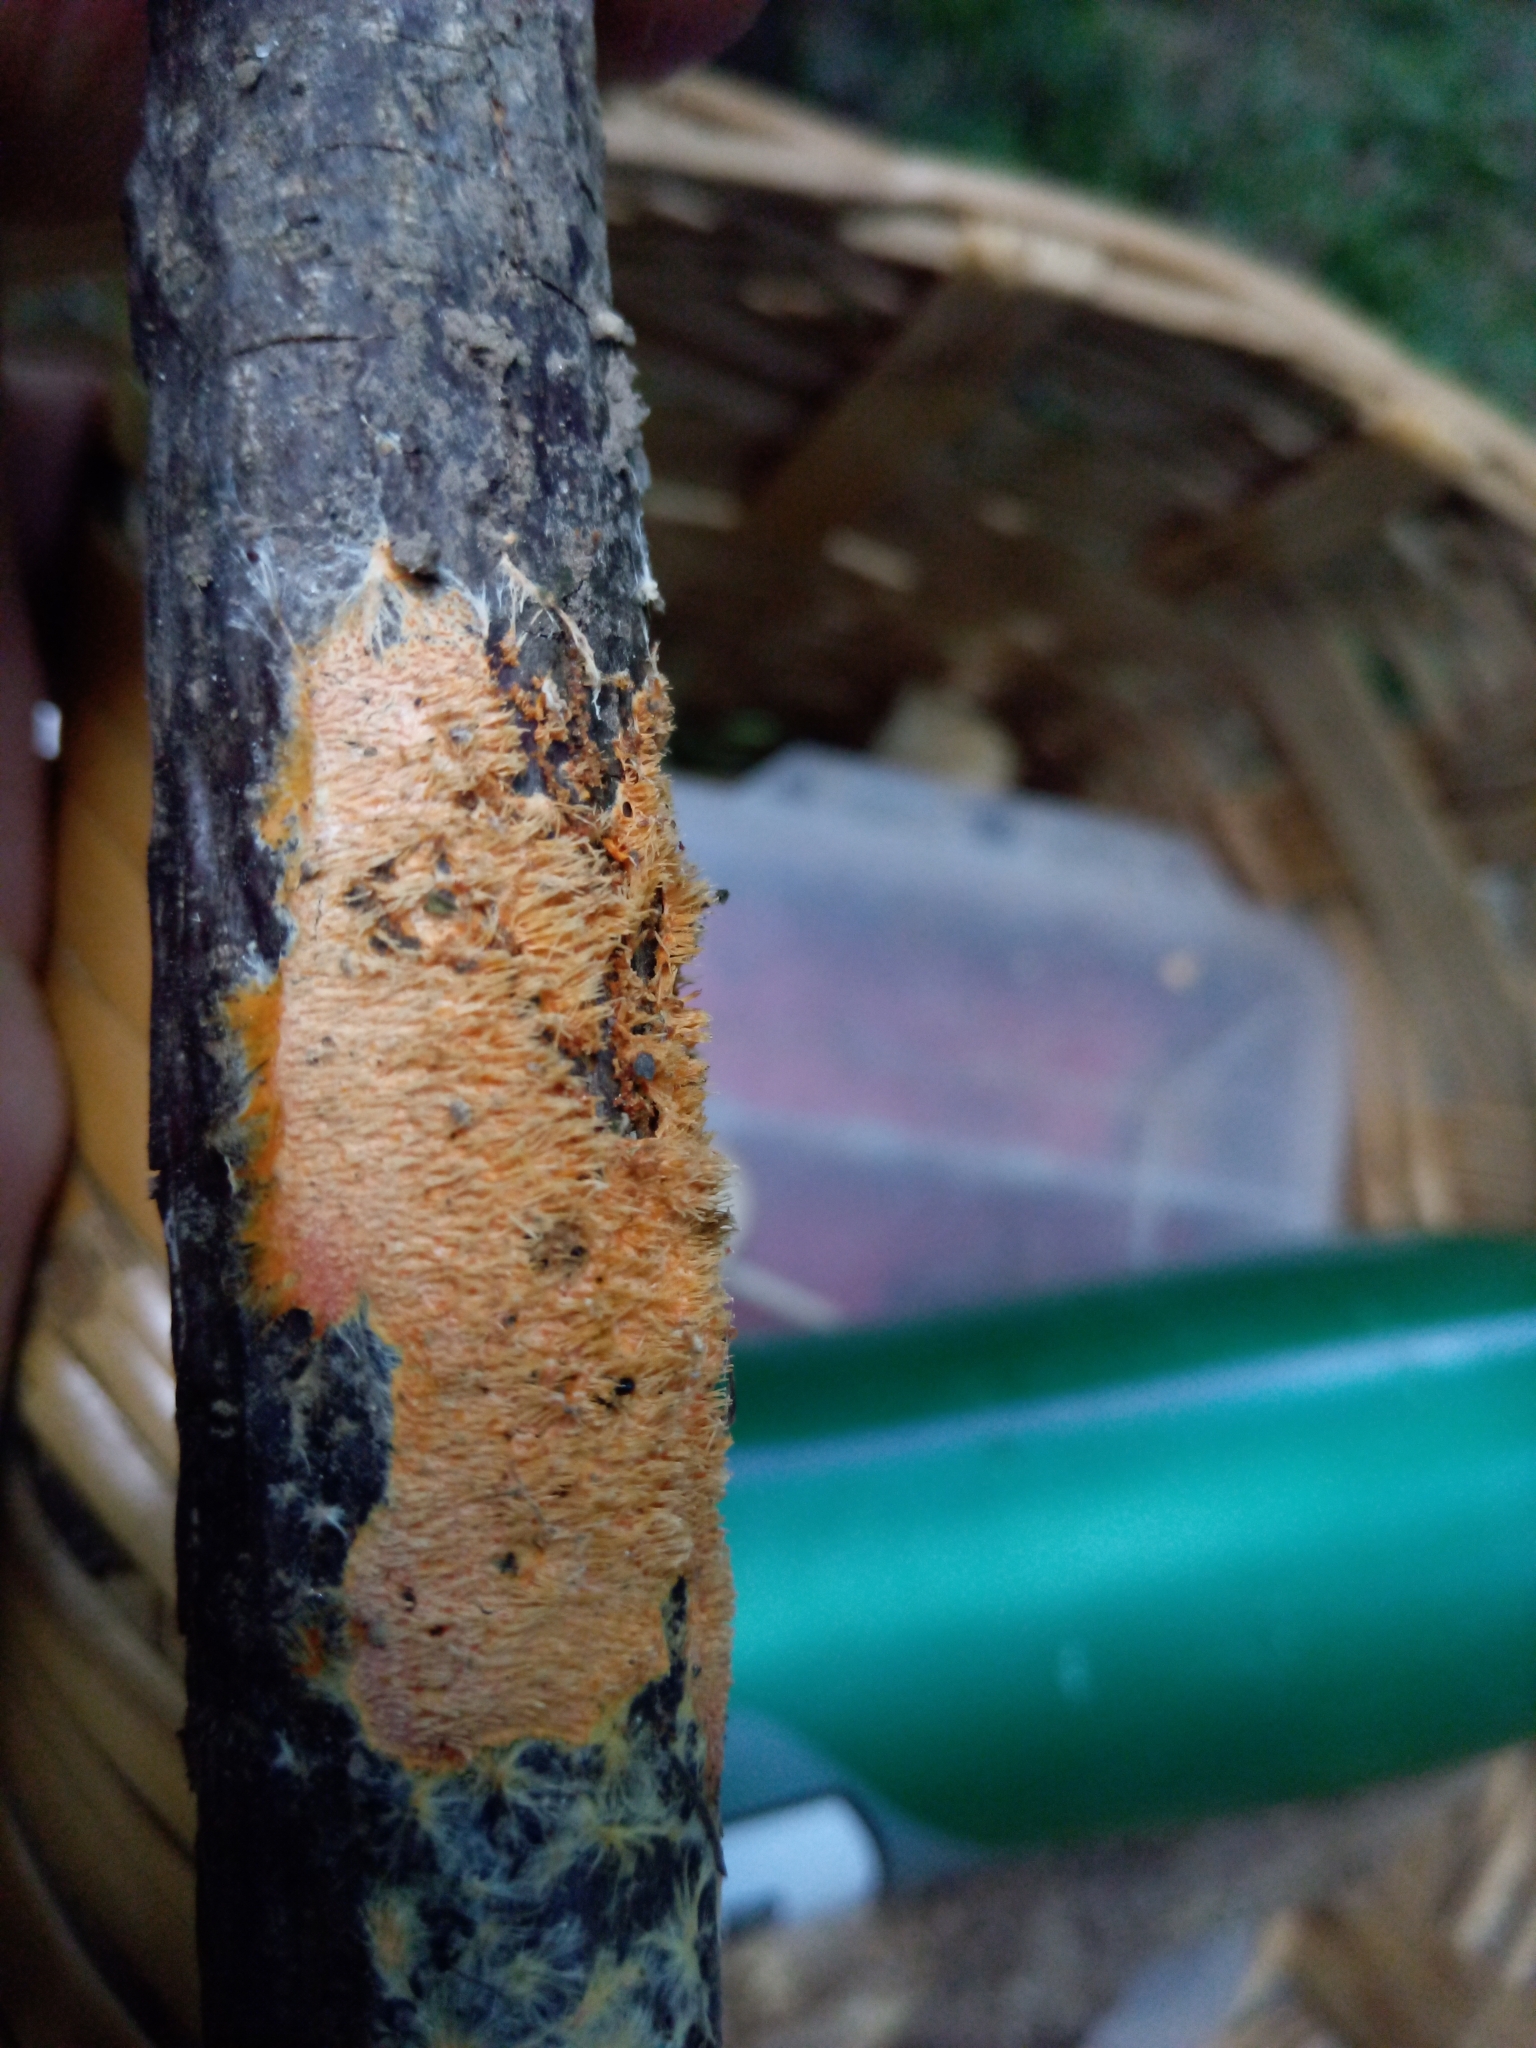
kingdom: Fungi
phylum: Basidiomycota
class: Agaricomycetes
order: Polyporales
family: Meruliaceae
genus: Hydnophlebia
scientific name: Hydnophlebia chrysorhiza
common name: Spreading yellow tooth
